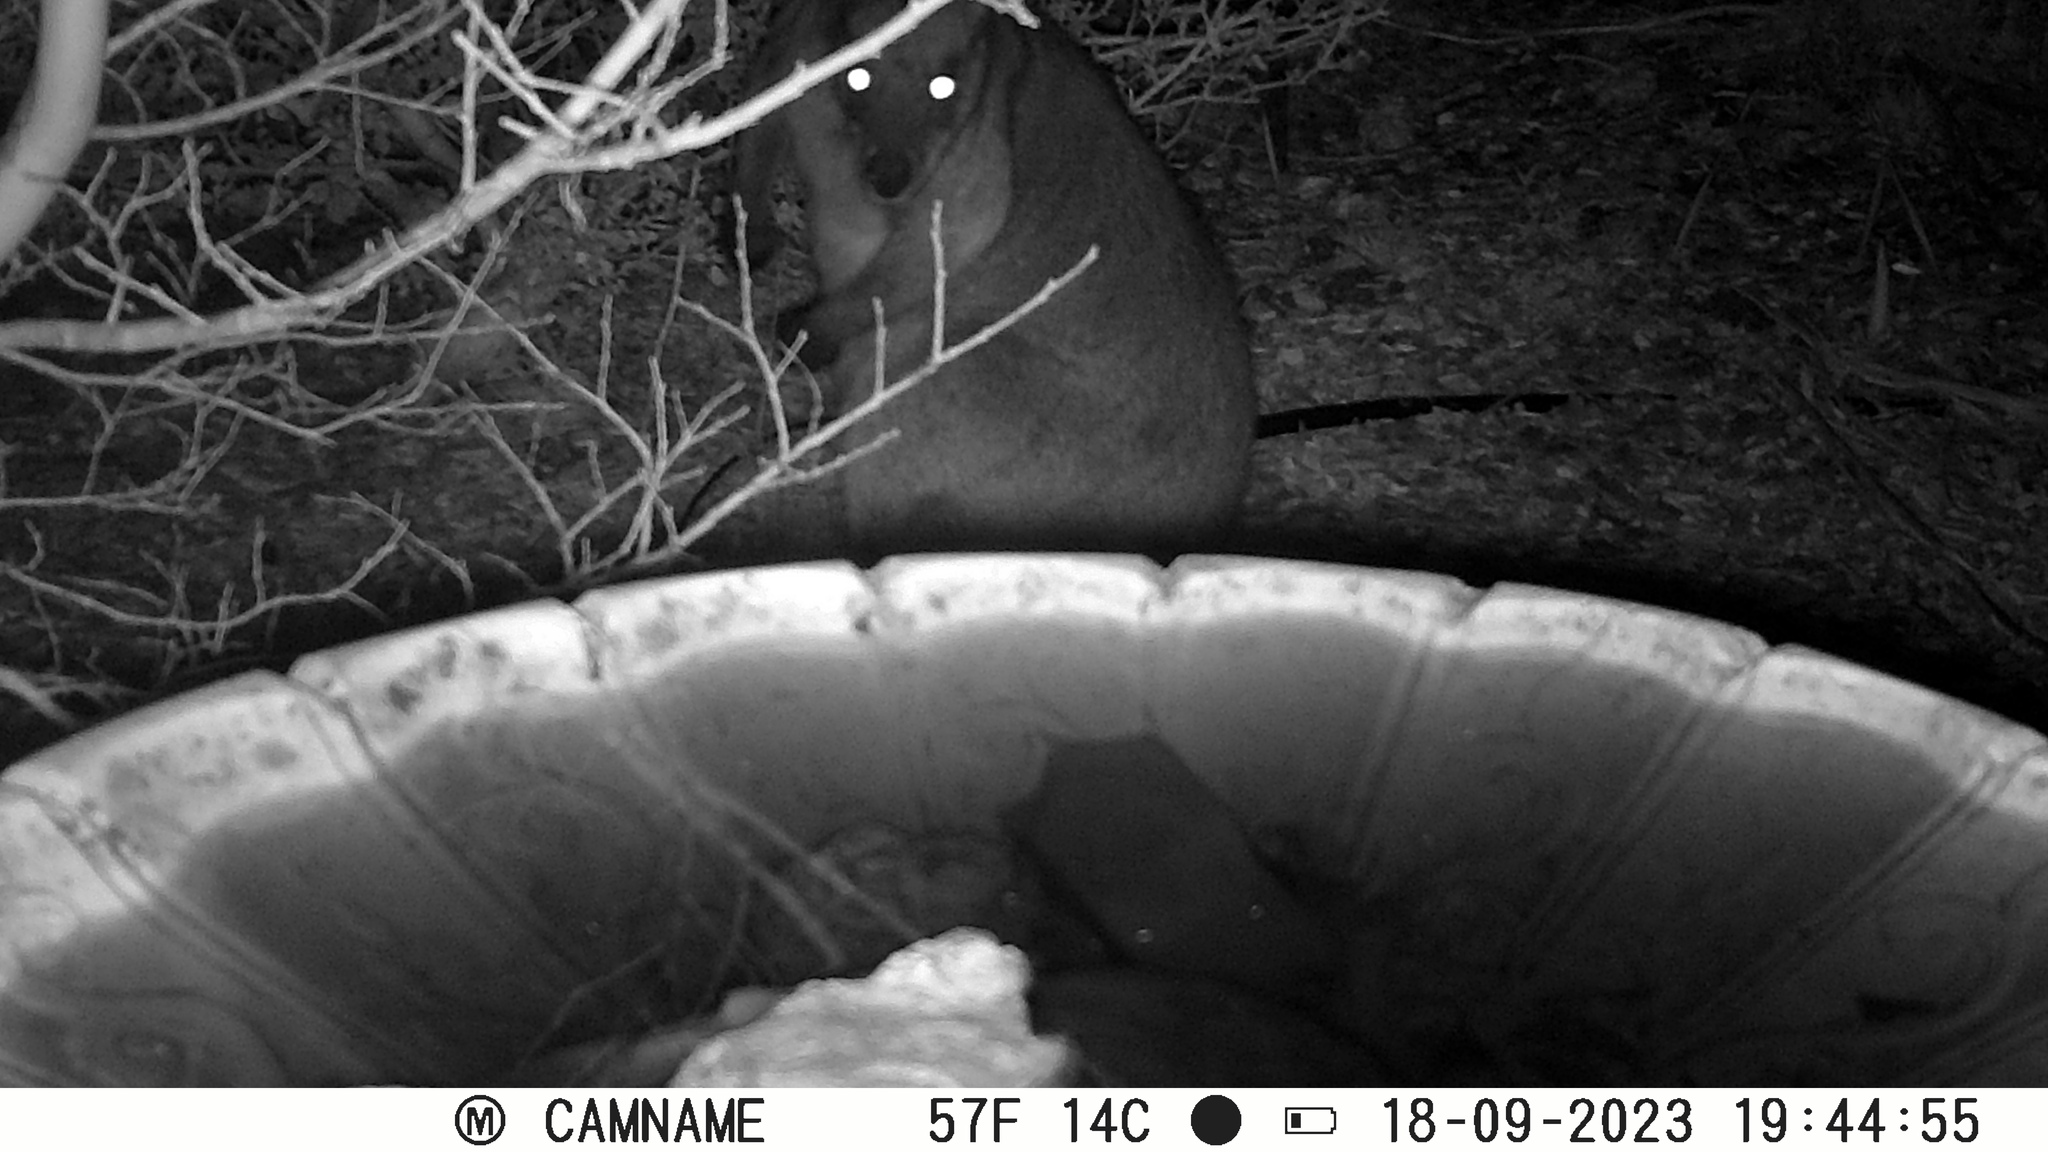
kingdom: Animalia
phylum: Chordata
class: Mammalia
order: Diprotodontia
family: Macropodidae
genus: Wallabia
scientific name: Wallabia bicolor
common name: Swamp wallaby
